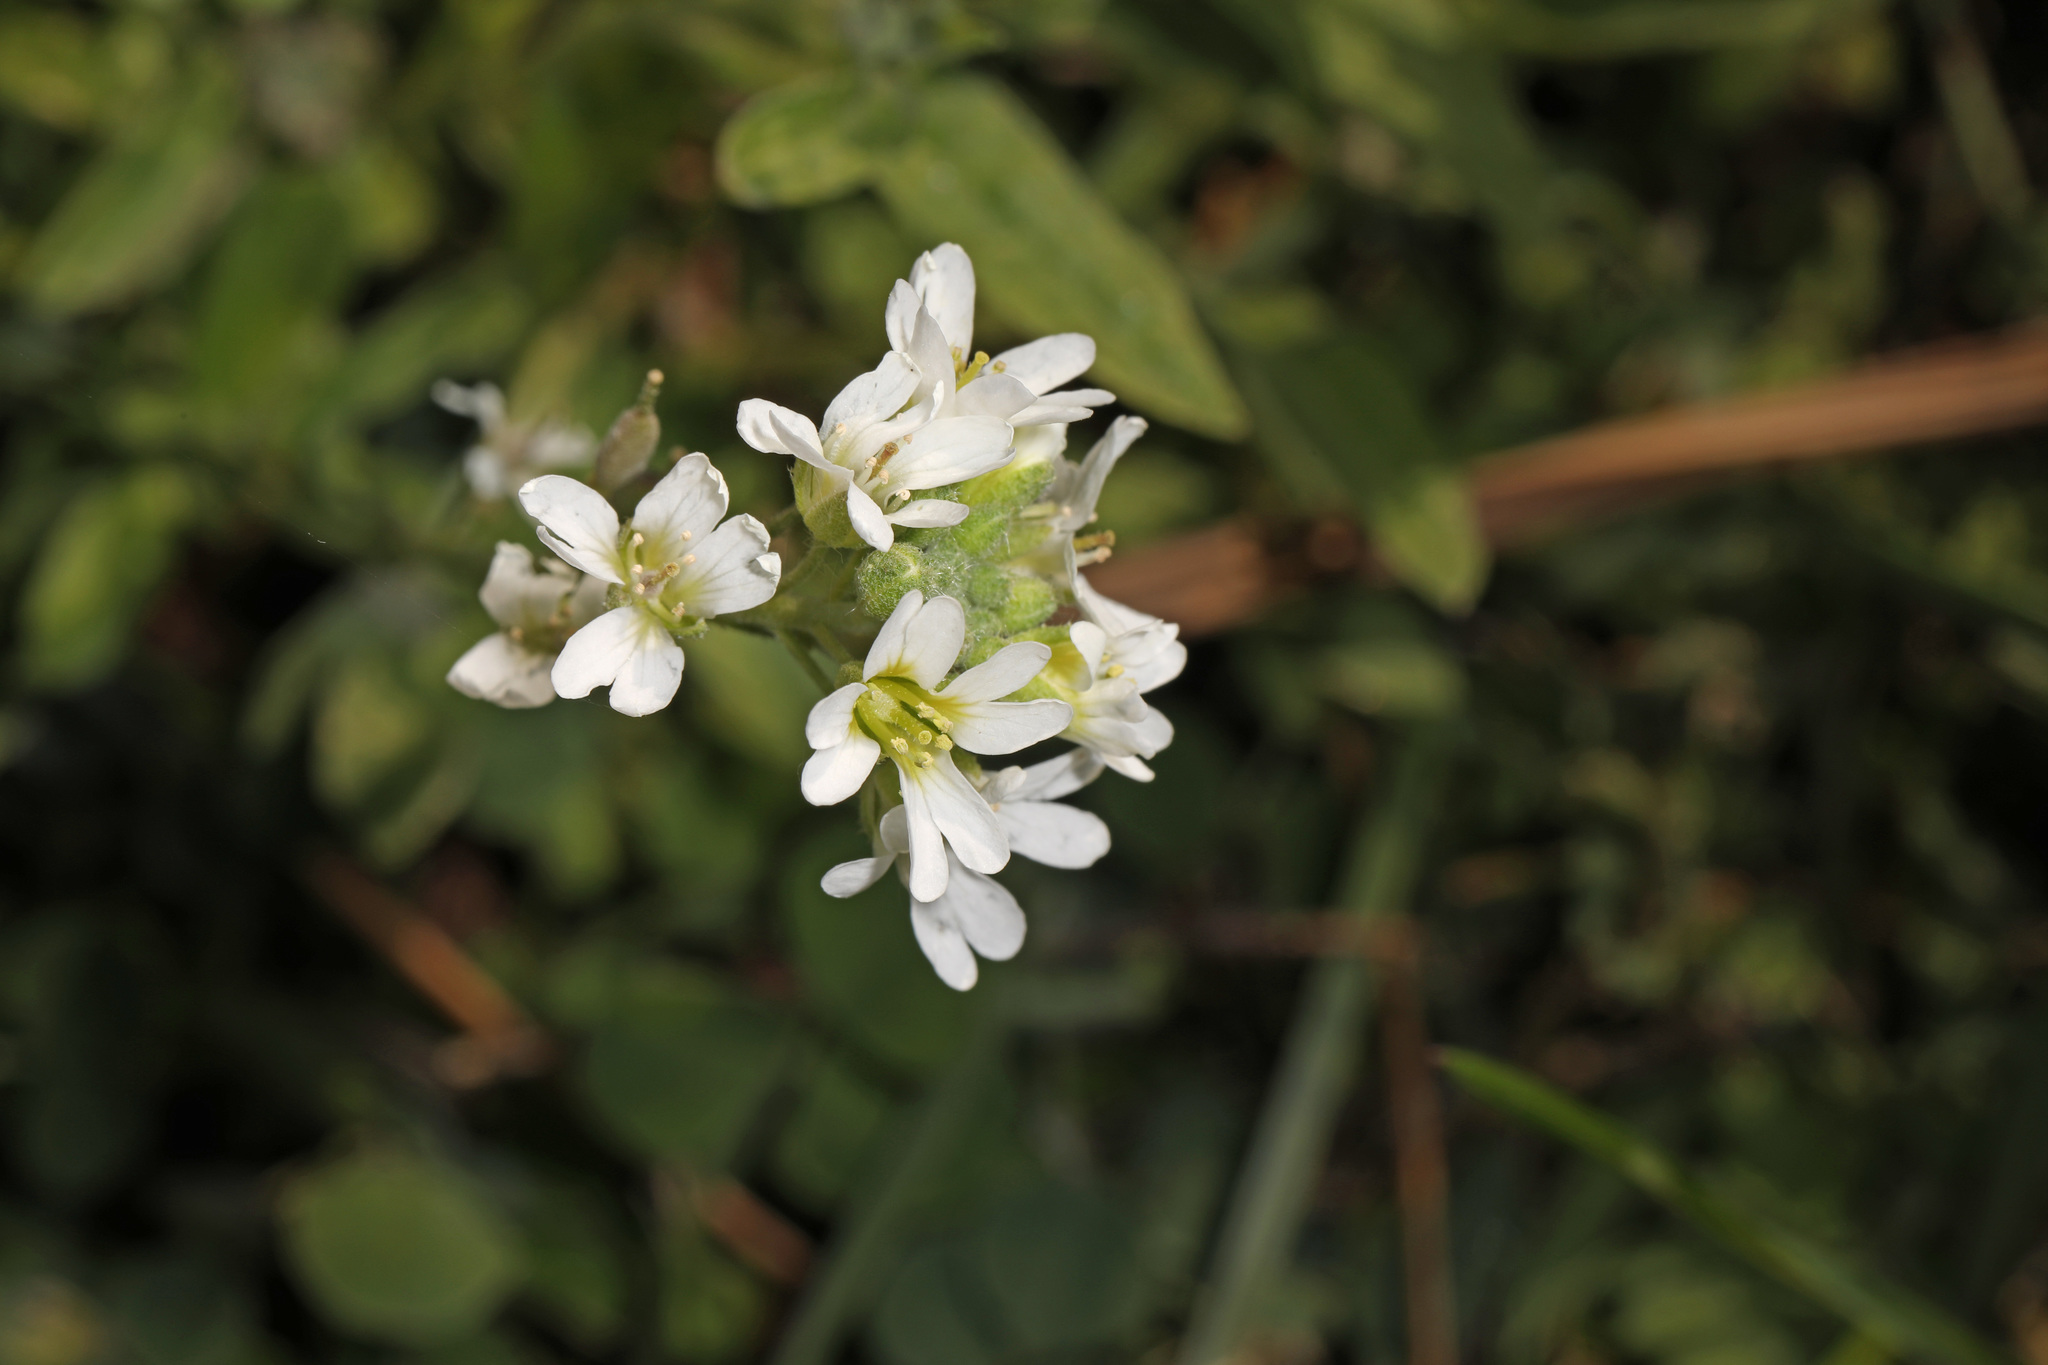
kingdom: Plantae
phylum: Tracheophyta
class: Magnoliopsida
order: Brassicales
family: Brassicaceae
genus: Berteroa
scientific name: Berteroa incana
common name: Hoary alison
